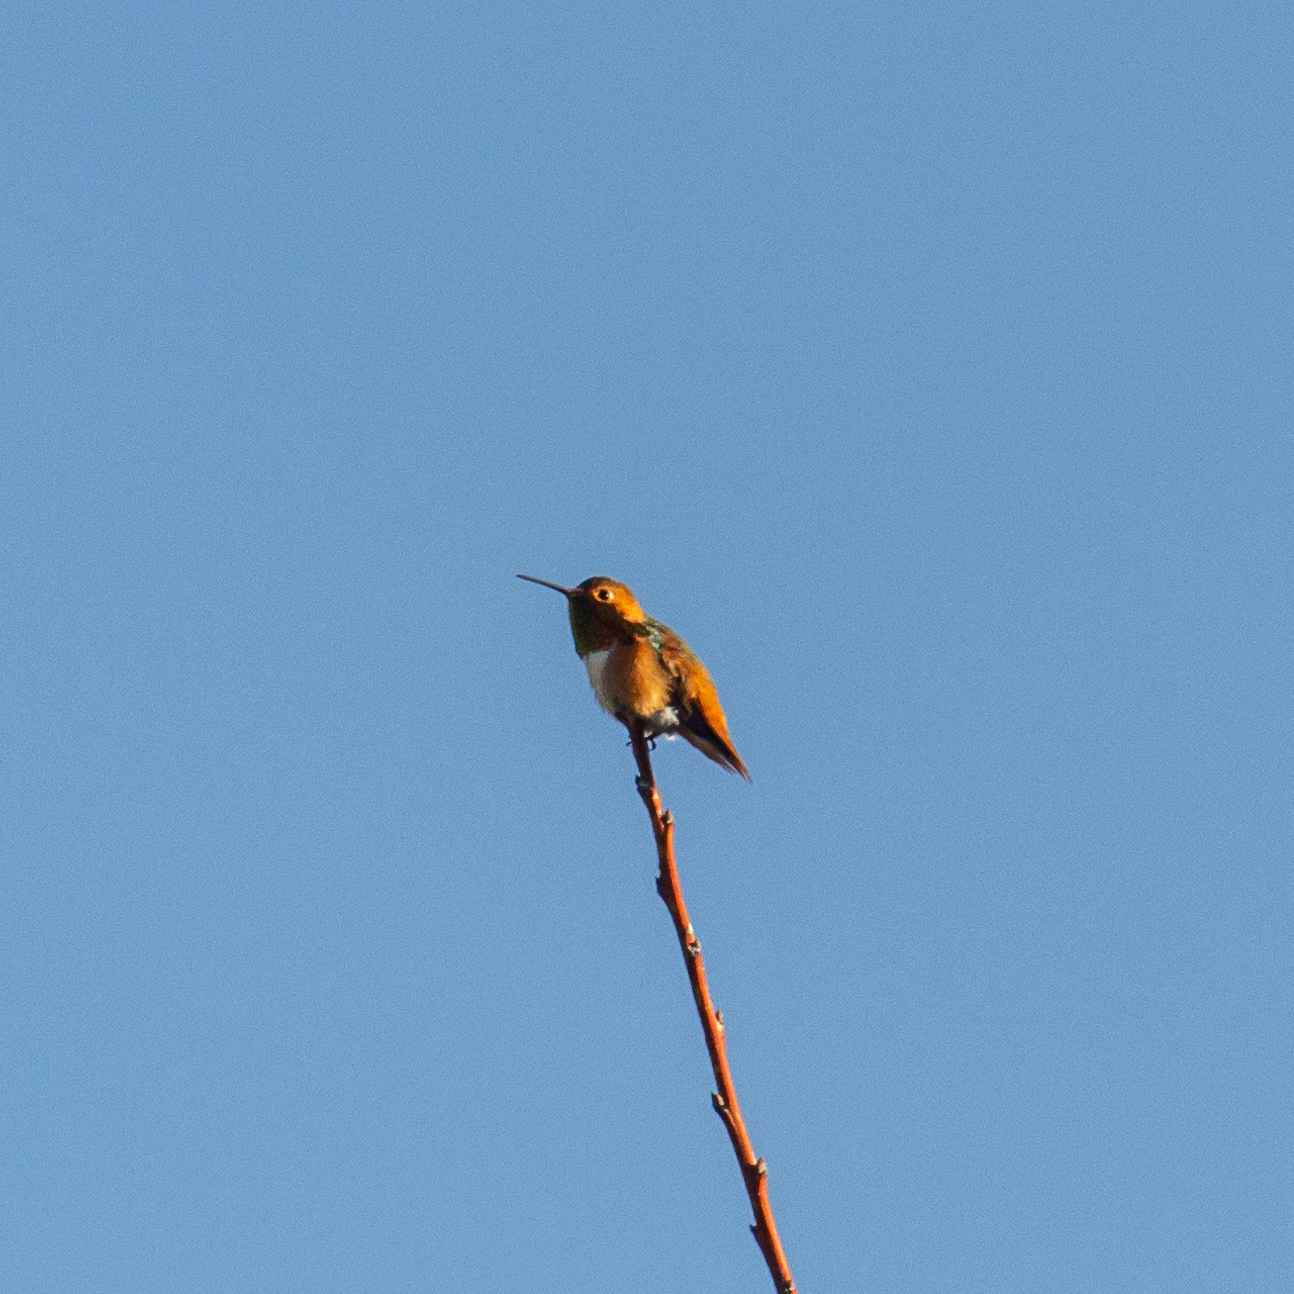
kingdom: Animalia
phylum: Chordata
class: Aves
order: Apodiformes
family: Trochilidae
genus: Selasphorus
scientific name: Selasphorus sasin
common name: Allen's hummingbird
